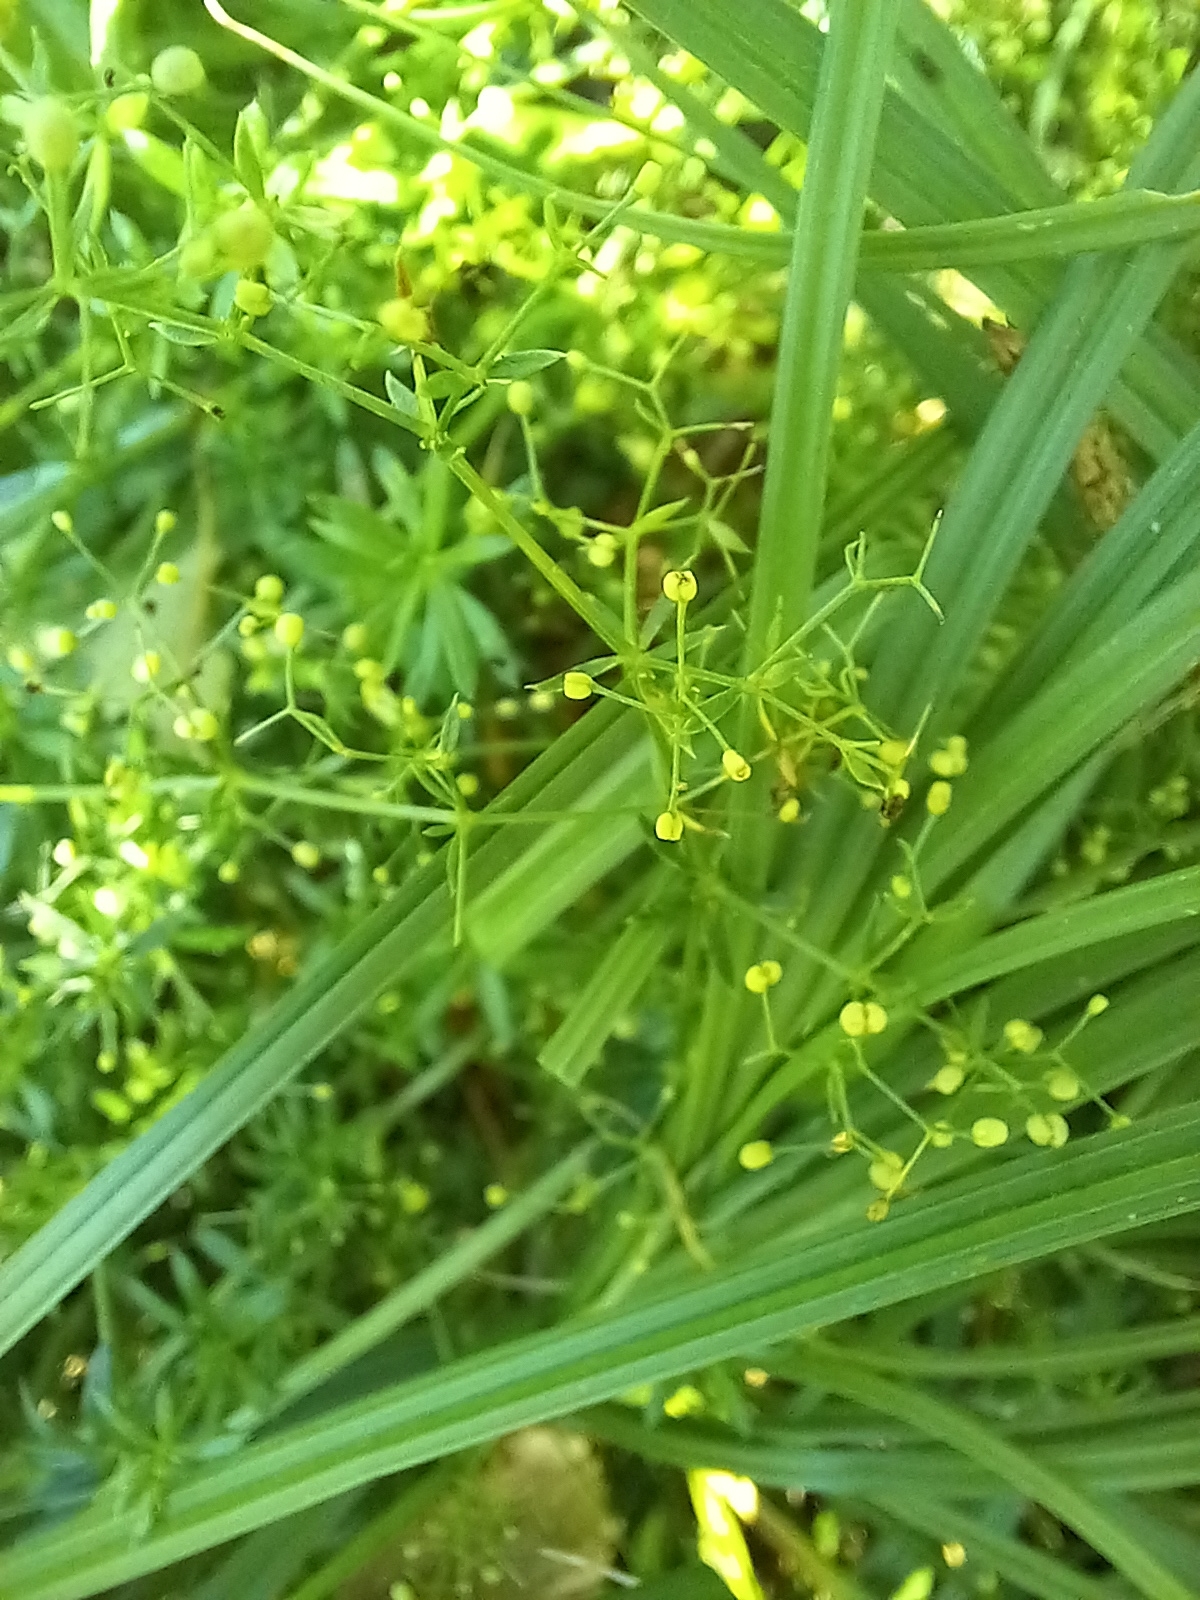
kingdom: Plantae
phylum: Tracheophyta
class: Magnoliopsida
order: Gentianales
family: Rubiaceae
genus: Galium
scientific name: Galium mollugo
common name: Hedge bedstraw
